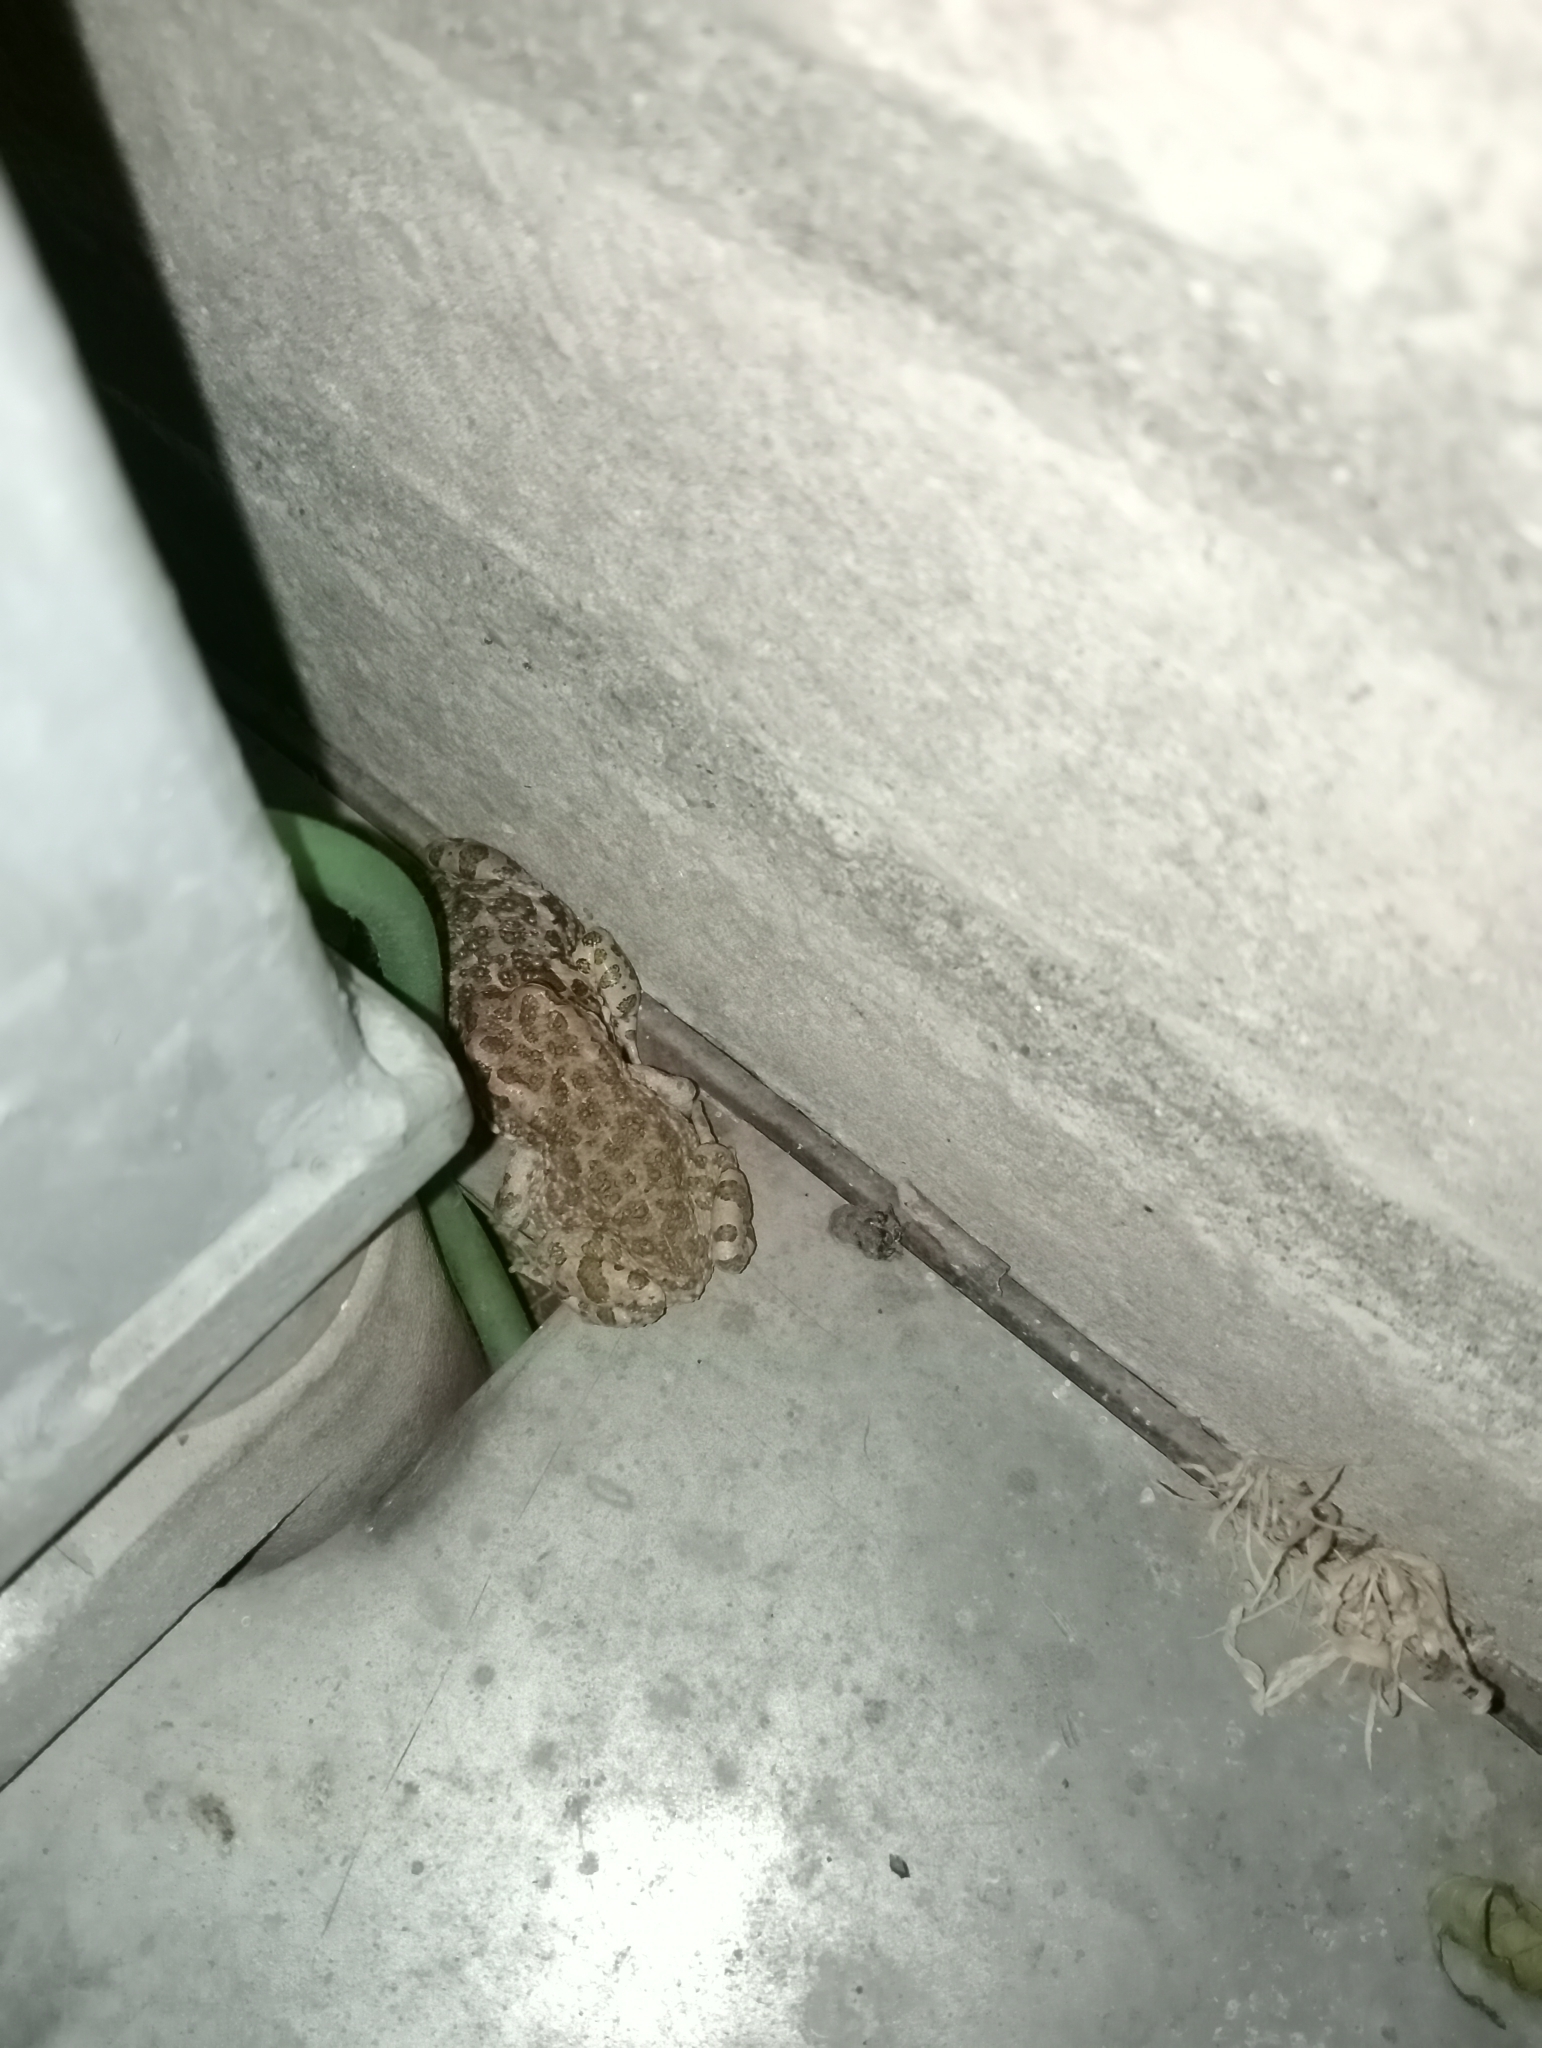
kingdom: Animalia
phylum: Chordata
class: Amphibia
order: Anura
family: Bufonidae
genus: Bufotes
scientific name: Bufotes viridis
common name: European green toad
